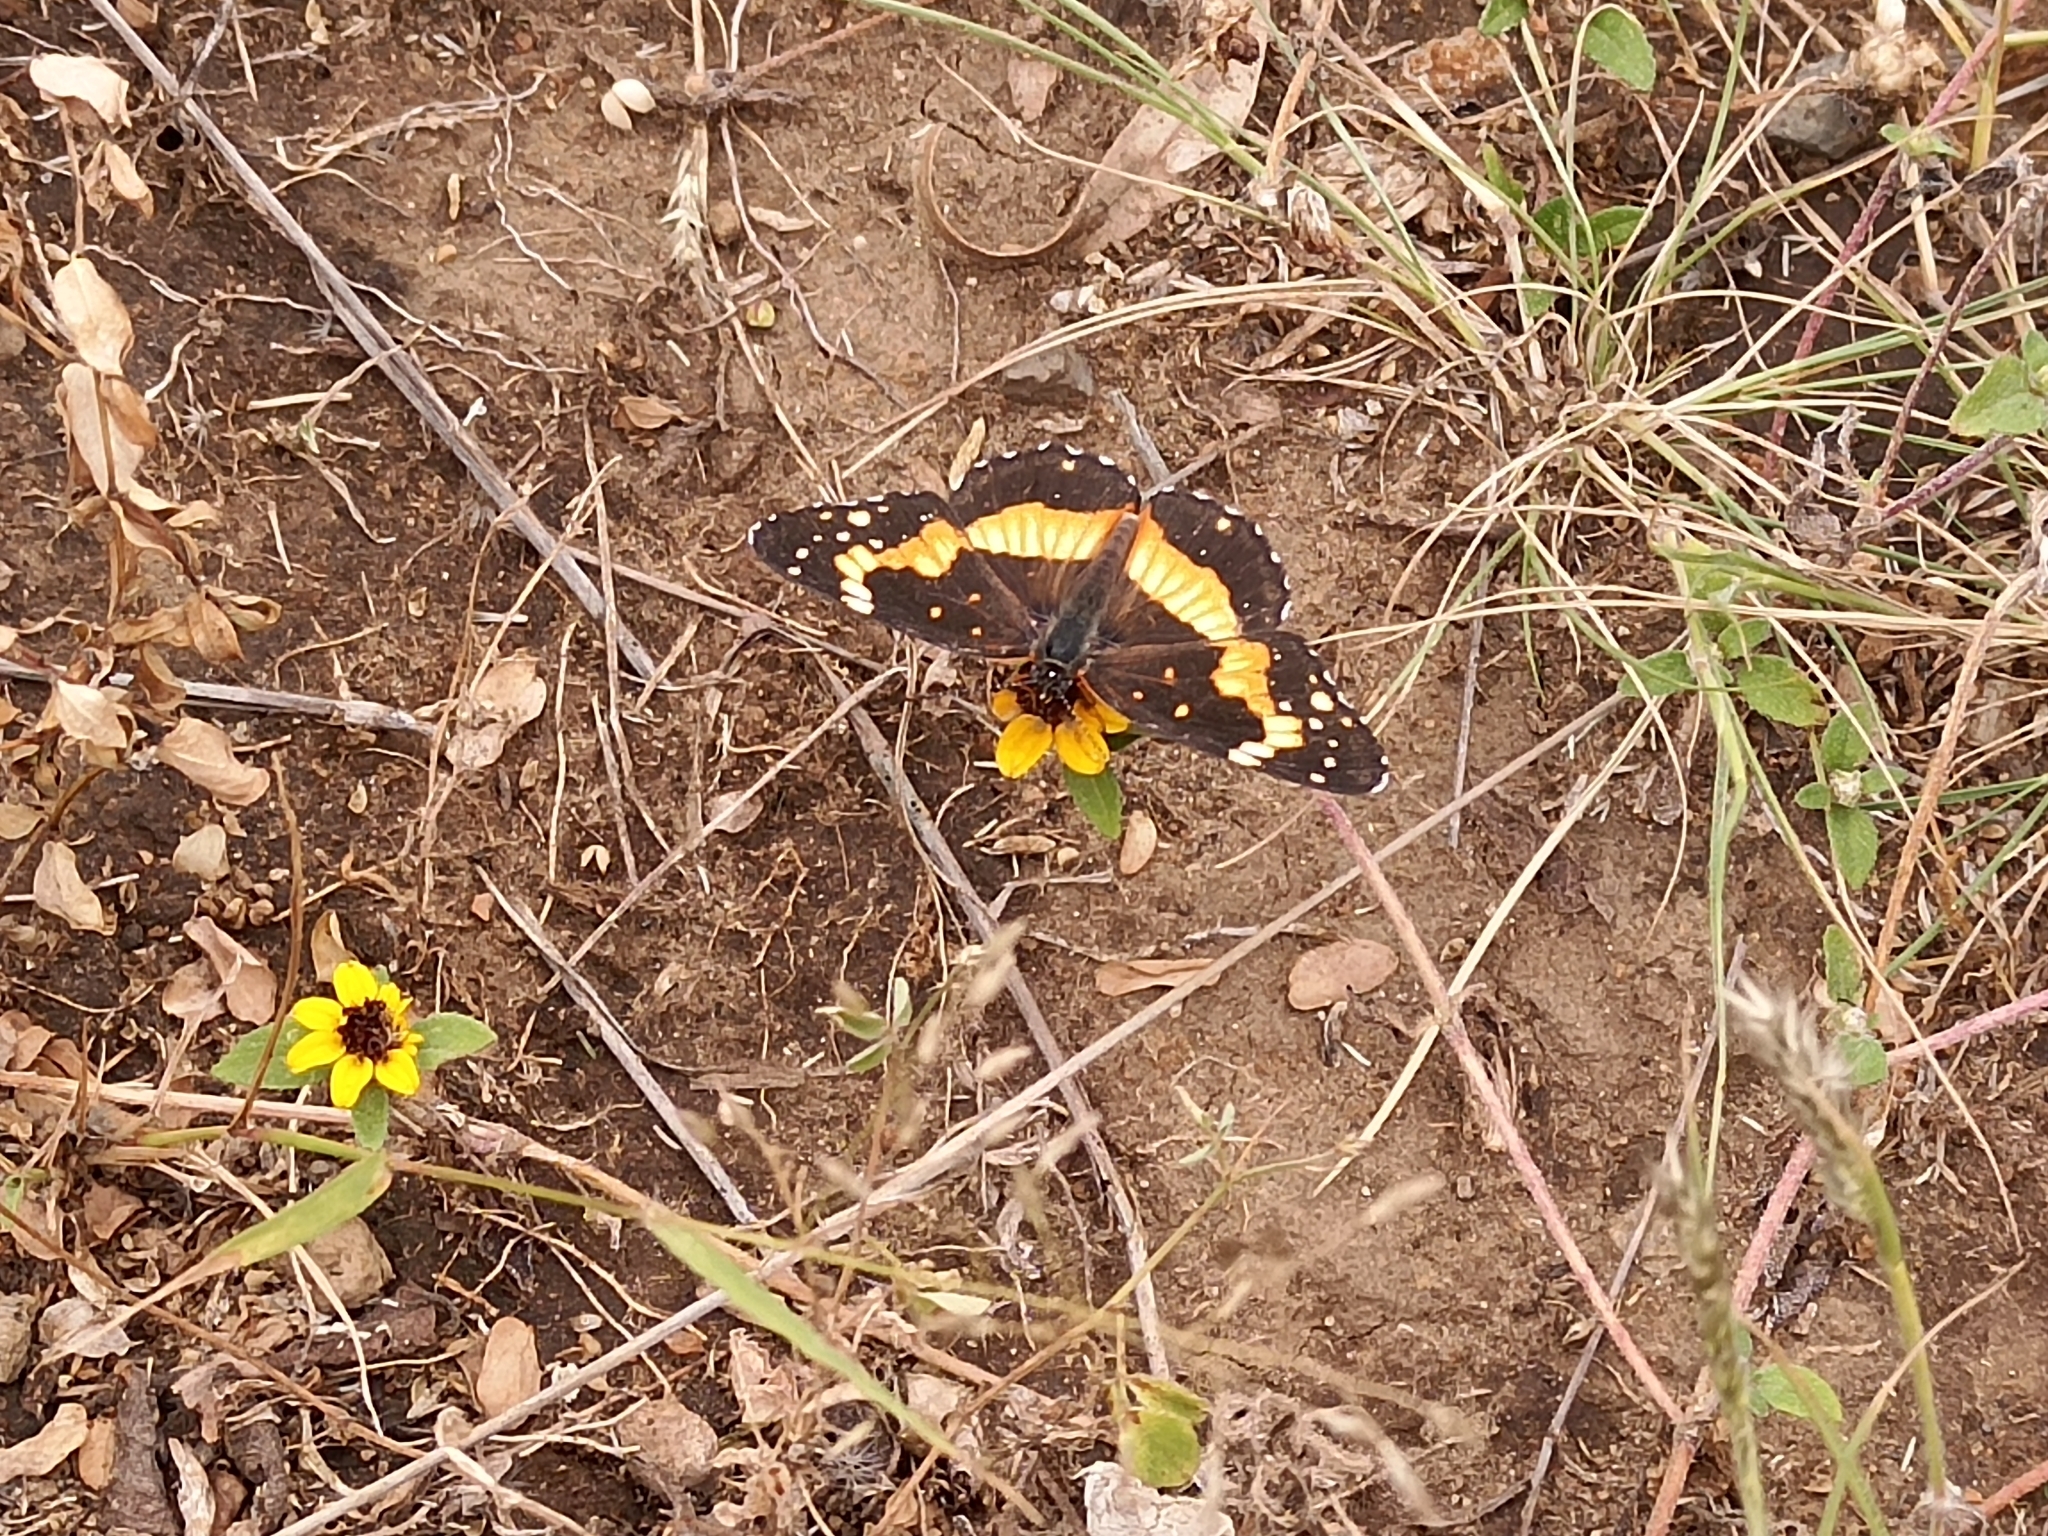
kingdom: Animalia
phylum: Arthropoda
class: Insecta
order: Lepidoptera
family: Nymphalidae
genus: Chlosyne
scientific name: Chlosyne lacinia
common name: Bordered patch
